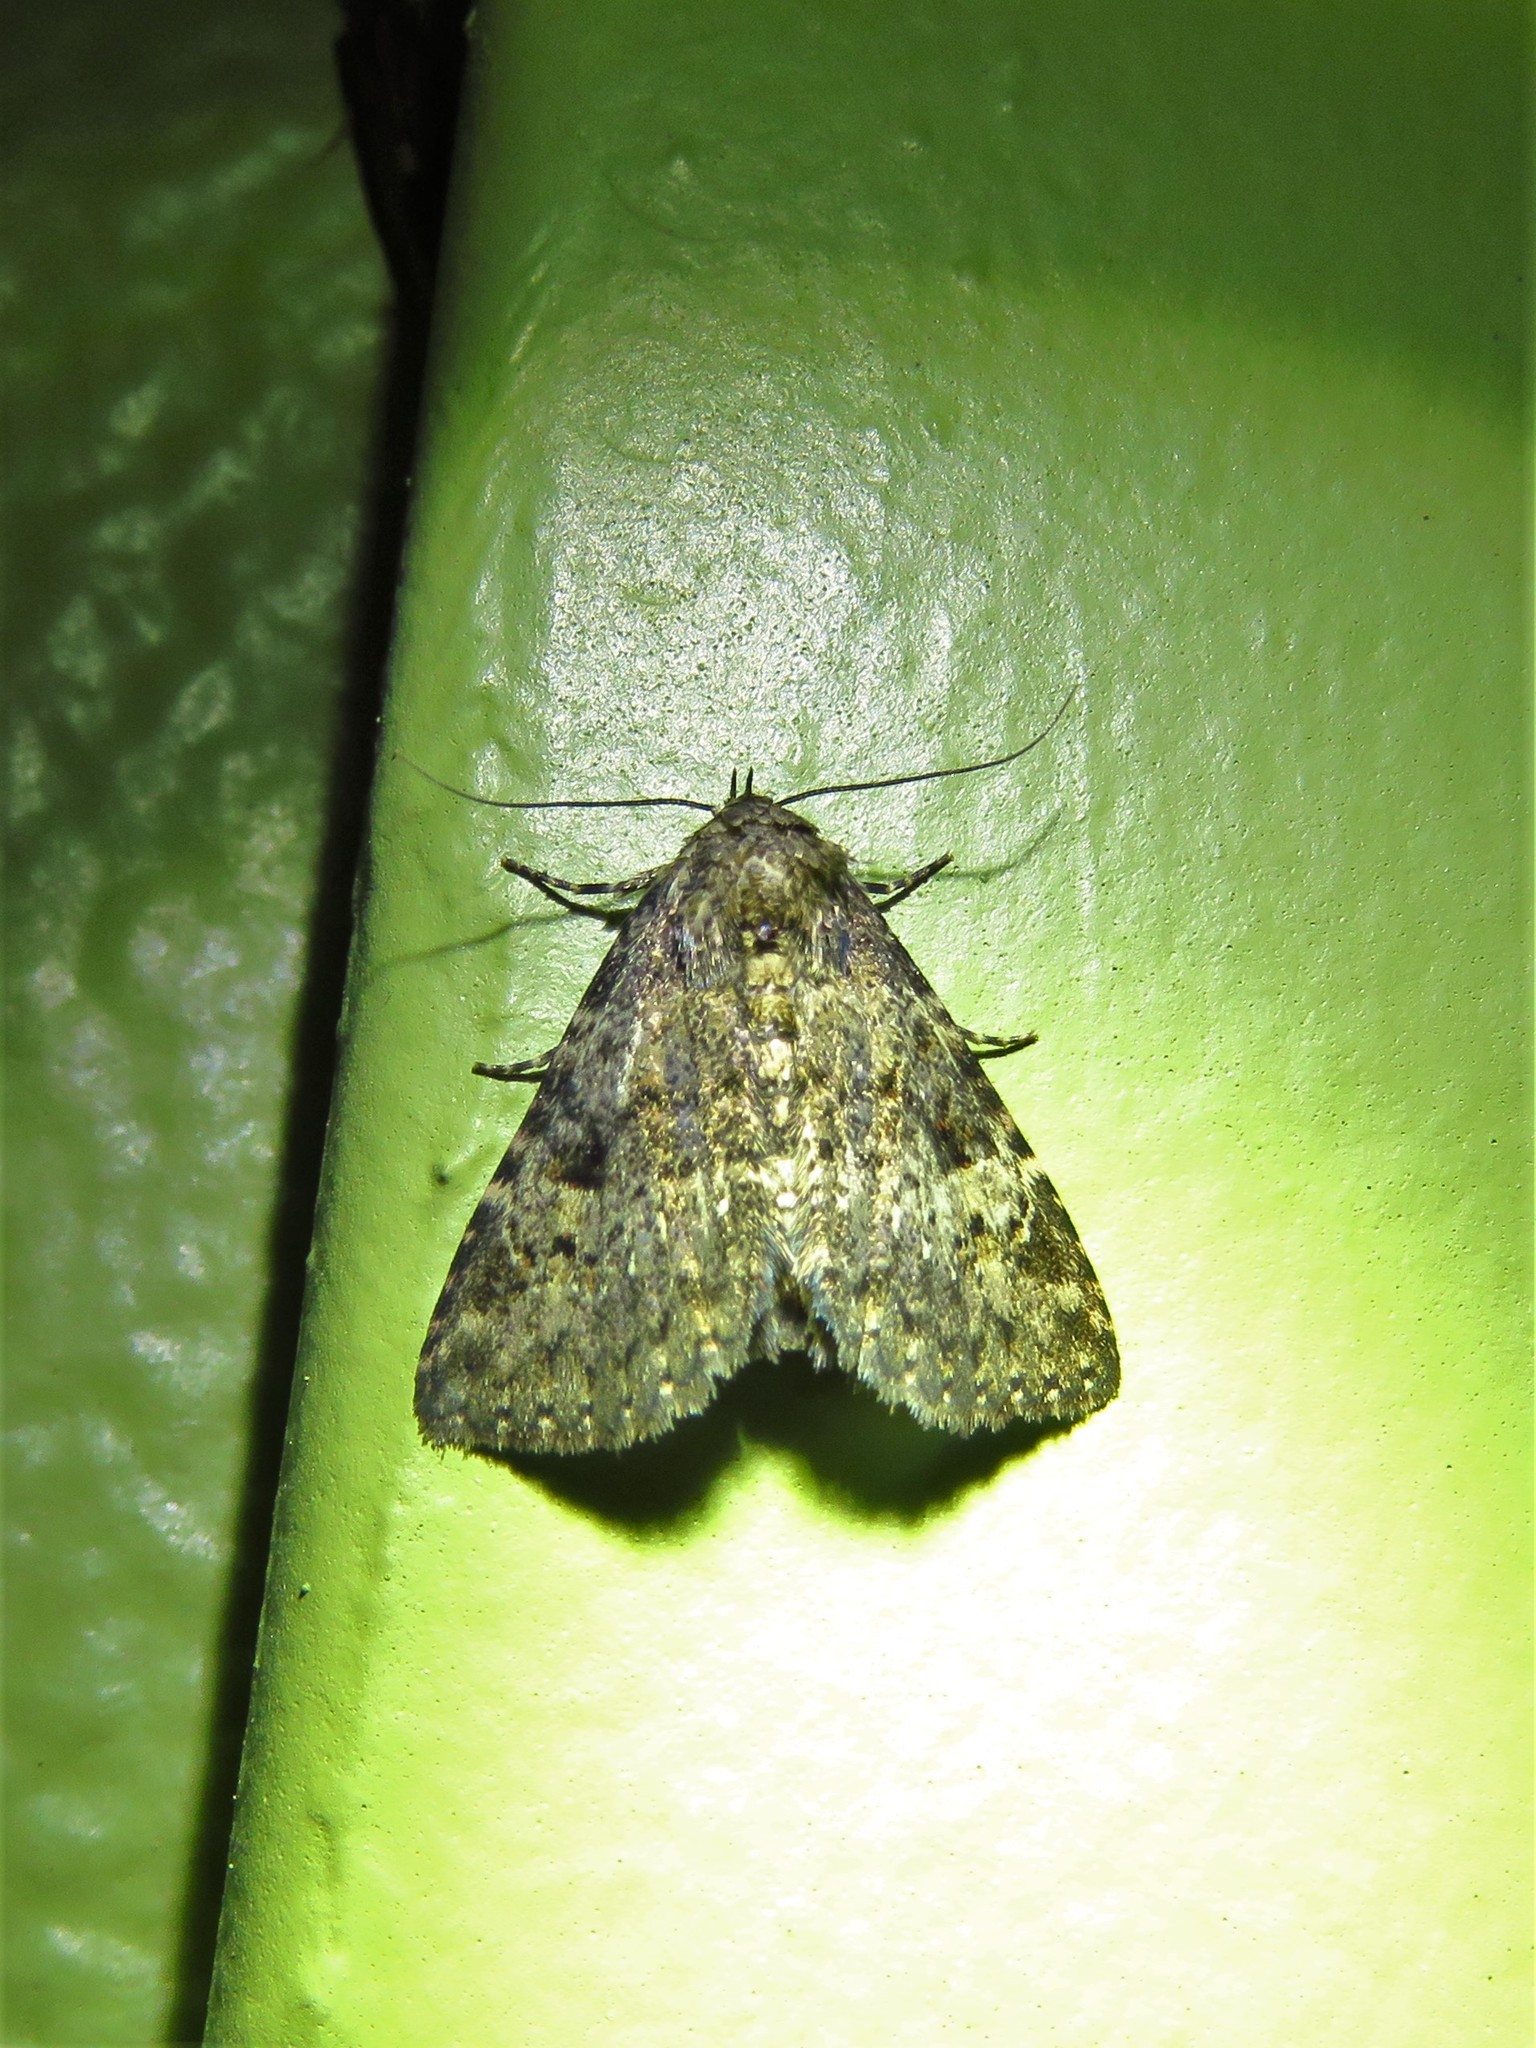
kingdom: Animalia
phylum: Arthropoda
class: Insecta
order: Lepidoptera
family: Erebidae
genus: Metalectra
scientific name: Metalectra discalis
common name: Common fungus moth
